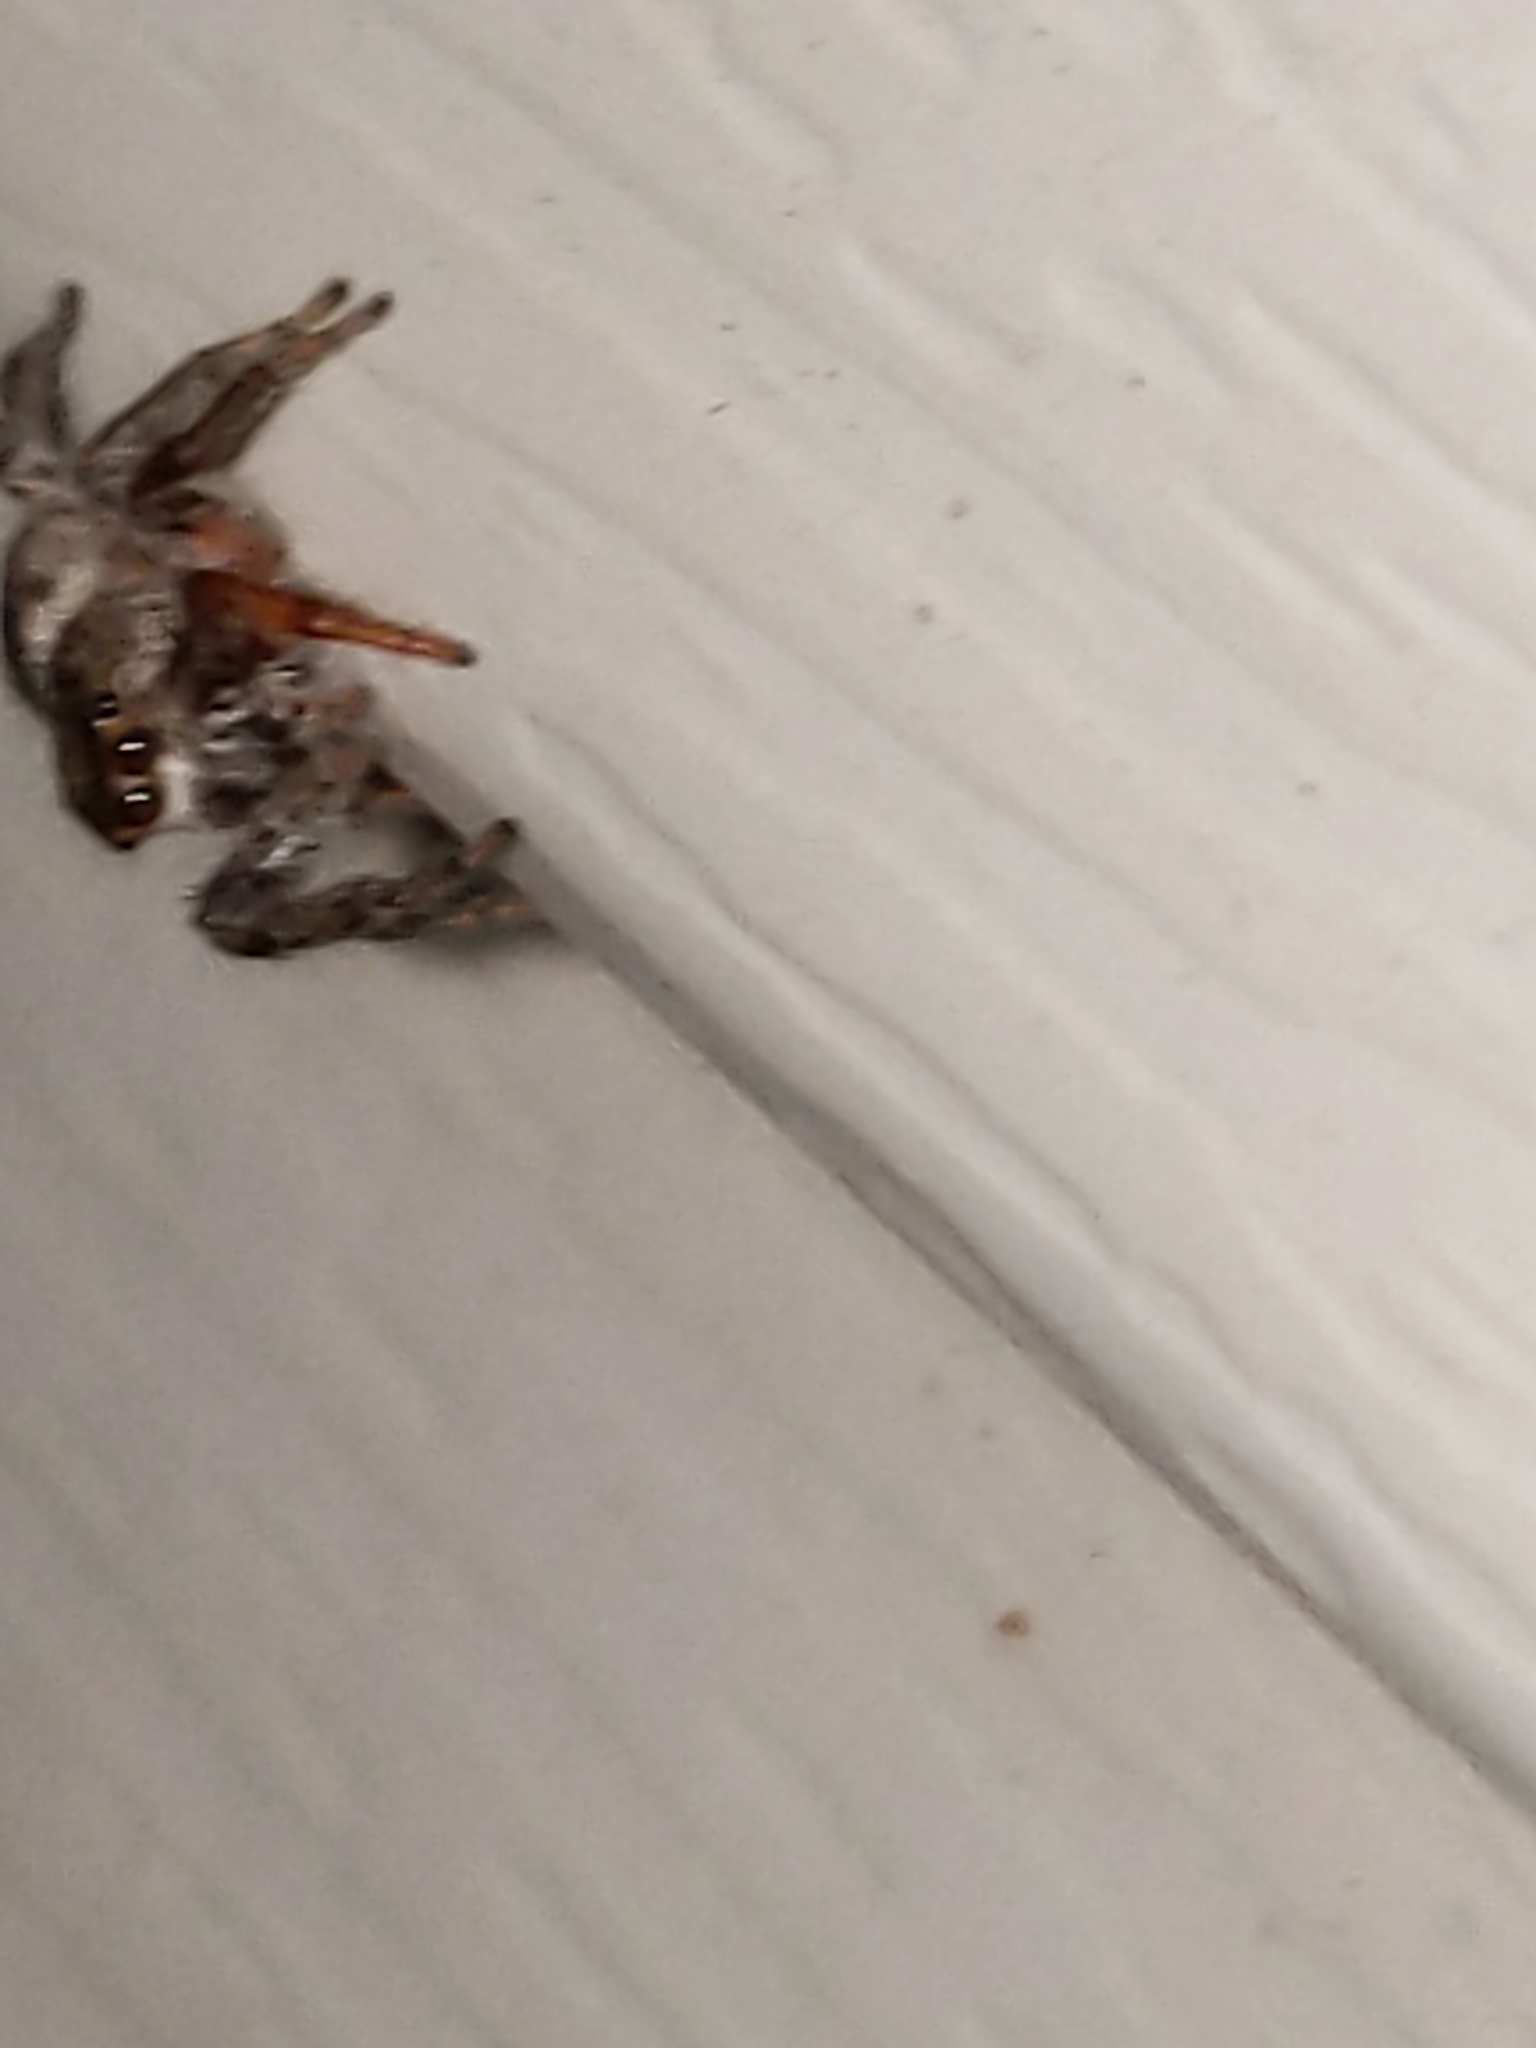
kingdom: Animalia
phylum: Arthropoda
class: Arachnida
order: Araneae
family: Salticidae
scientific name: Salticidae
